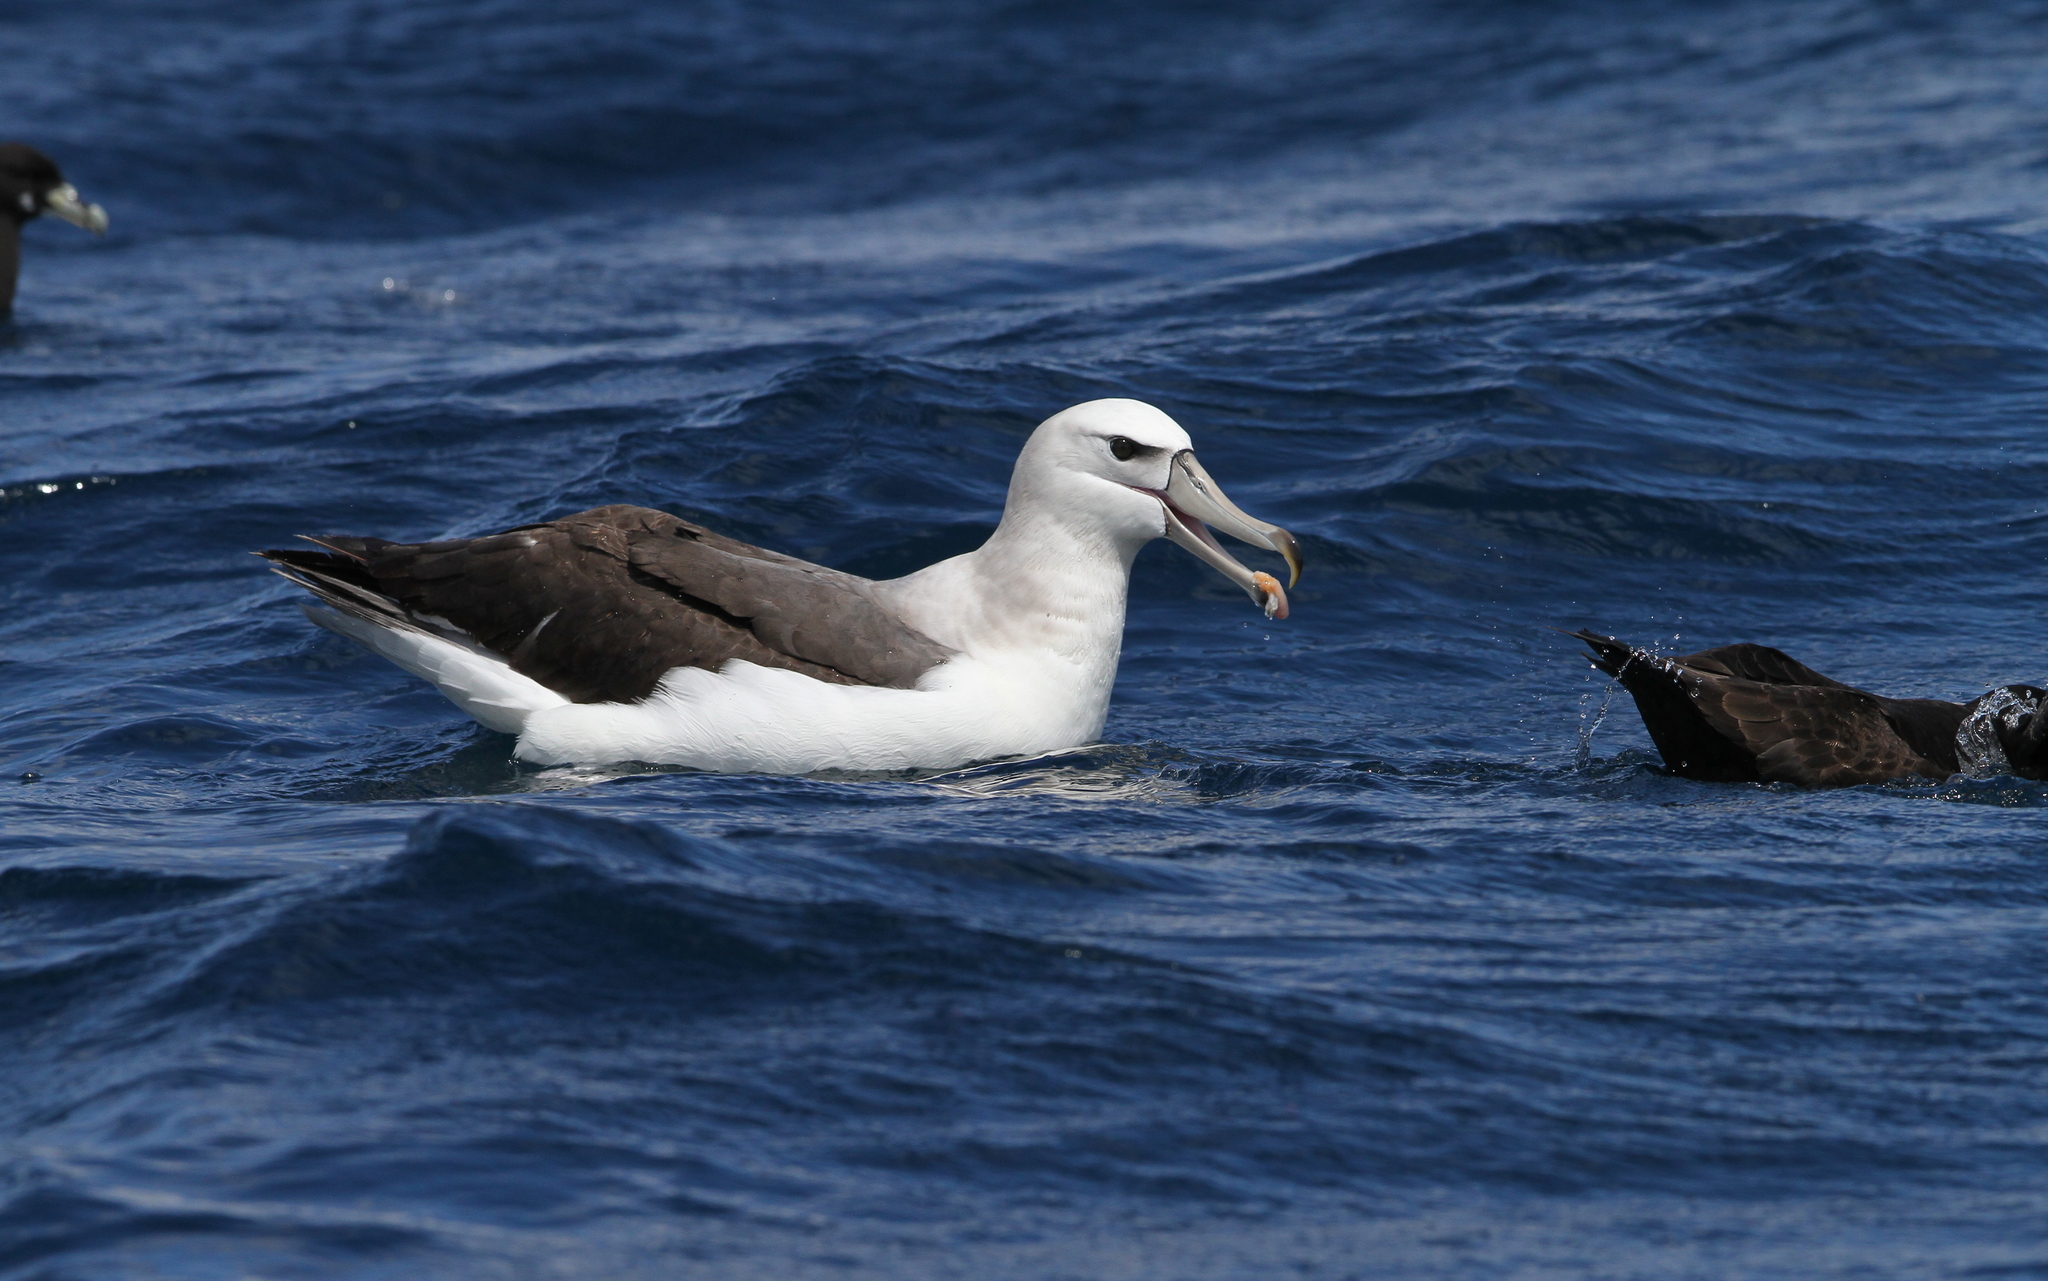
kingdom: Animalia
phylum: Chordata
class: Aves
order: Procellariiformes
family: Diomedeidae
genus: Thalassarche
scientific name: Thalassarche cauta
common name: Shy albatross
